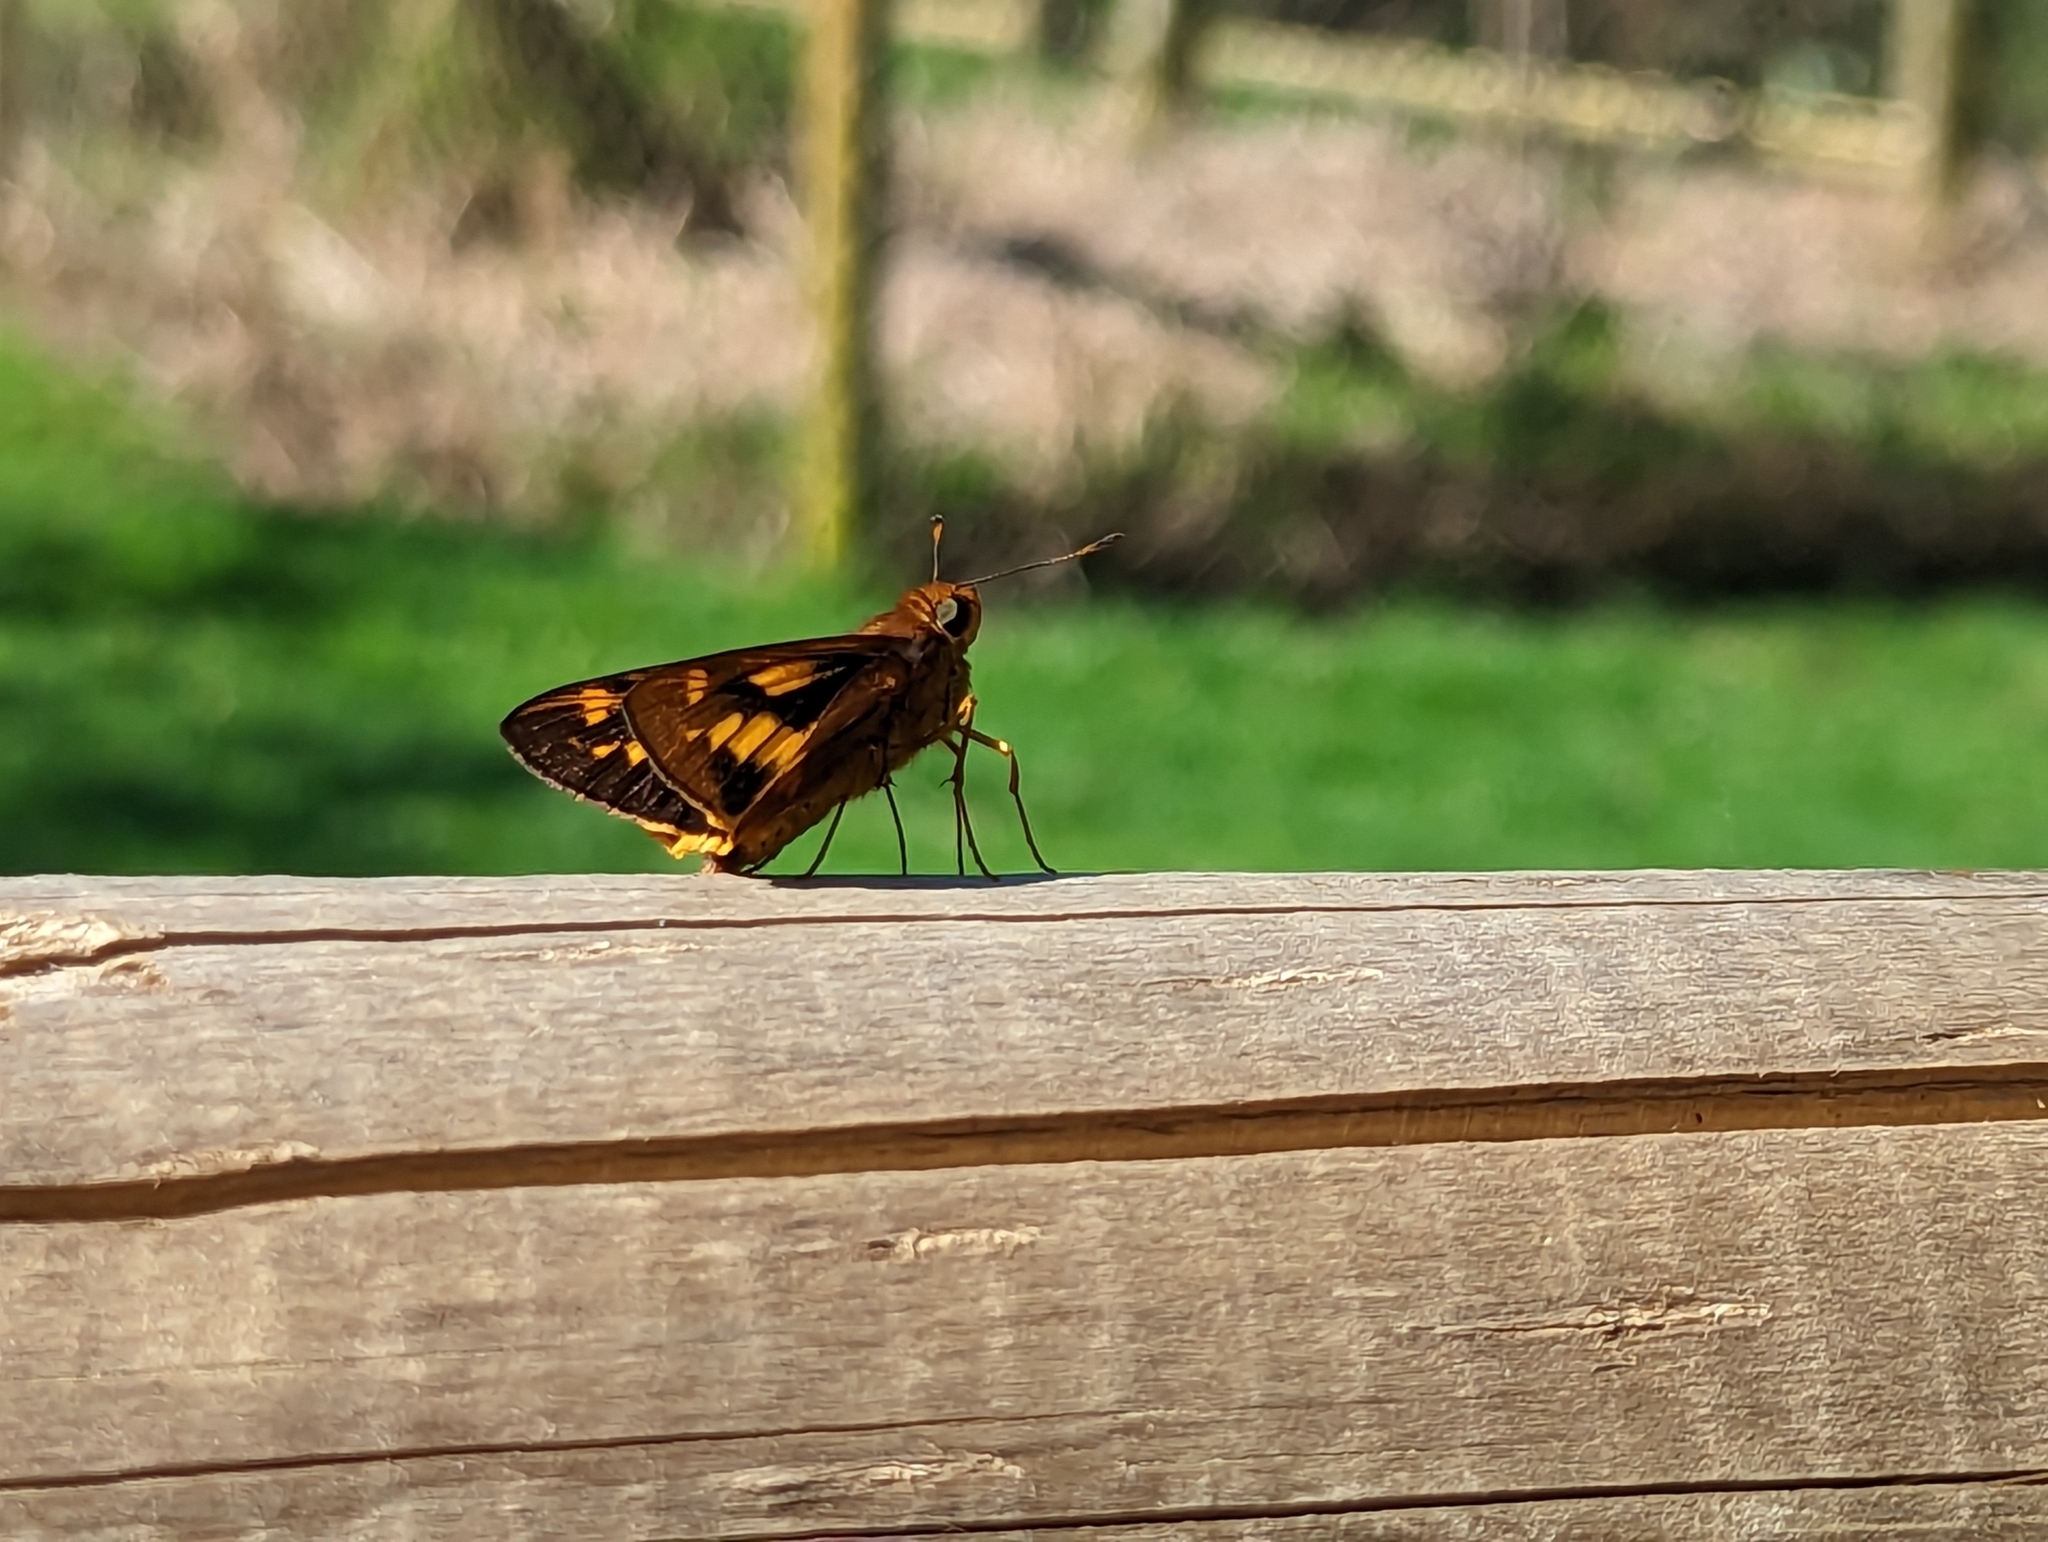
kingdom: Animalia
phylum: Arthropoda
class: Insecta
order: Lepidoptera
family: Hesperiidae
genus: Cephrenes
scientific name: Cephrenes augiades
